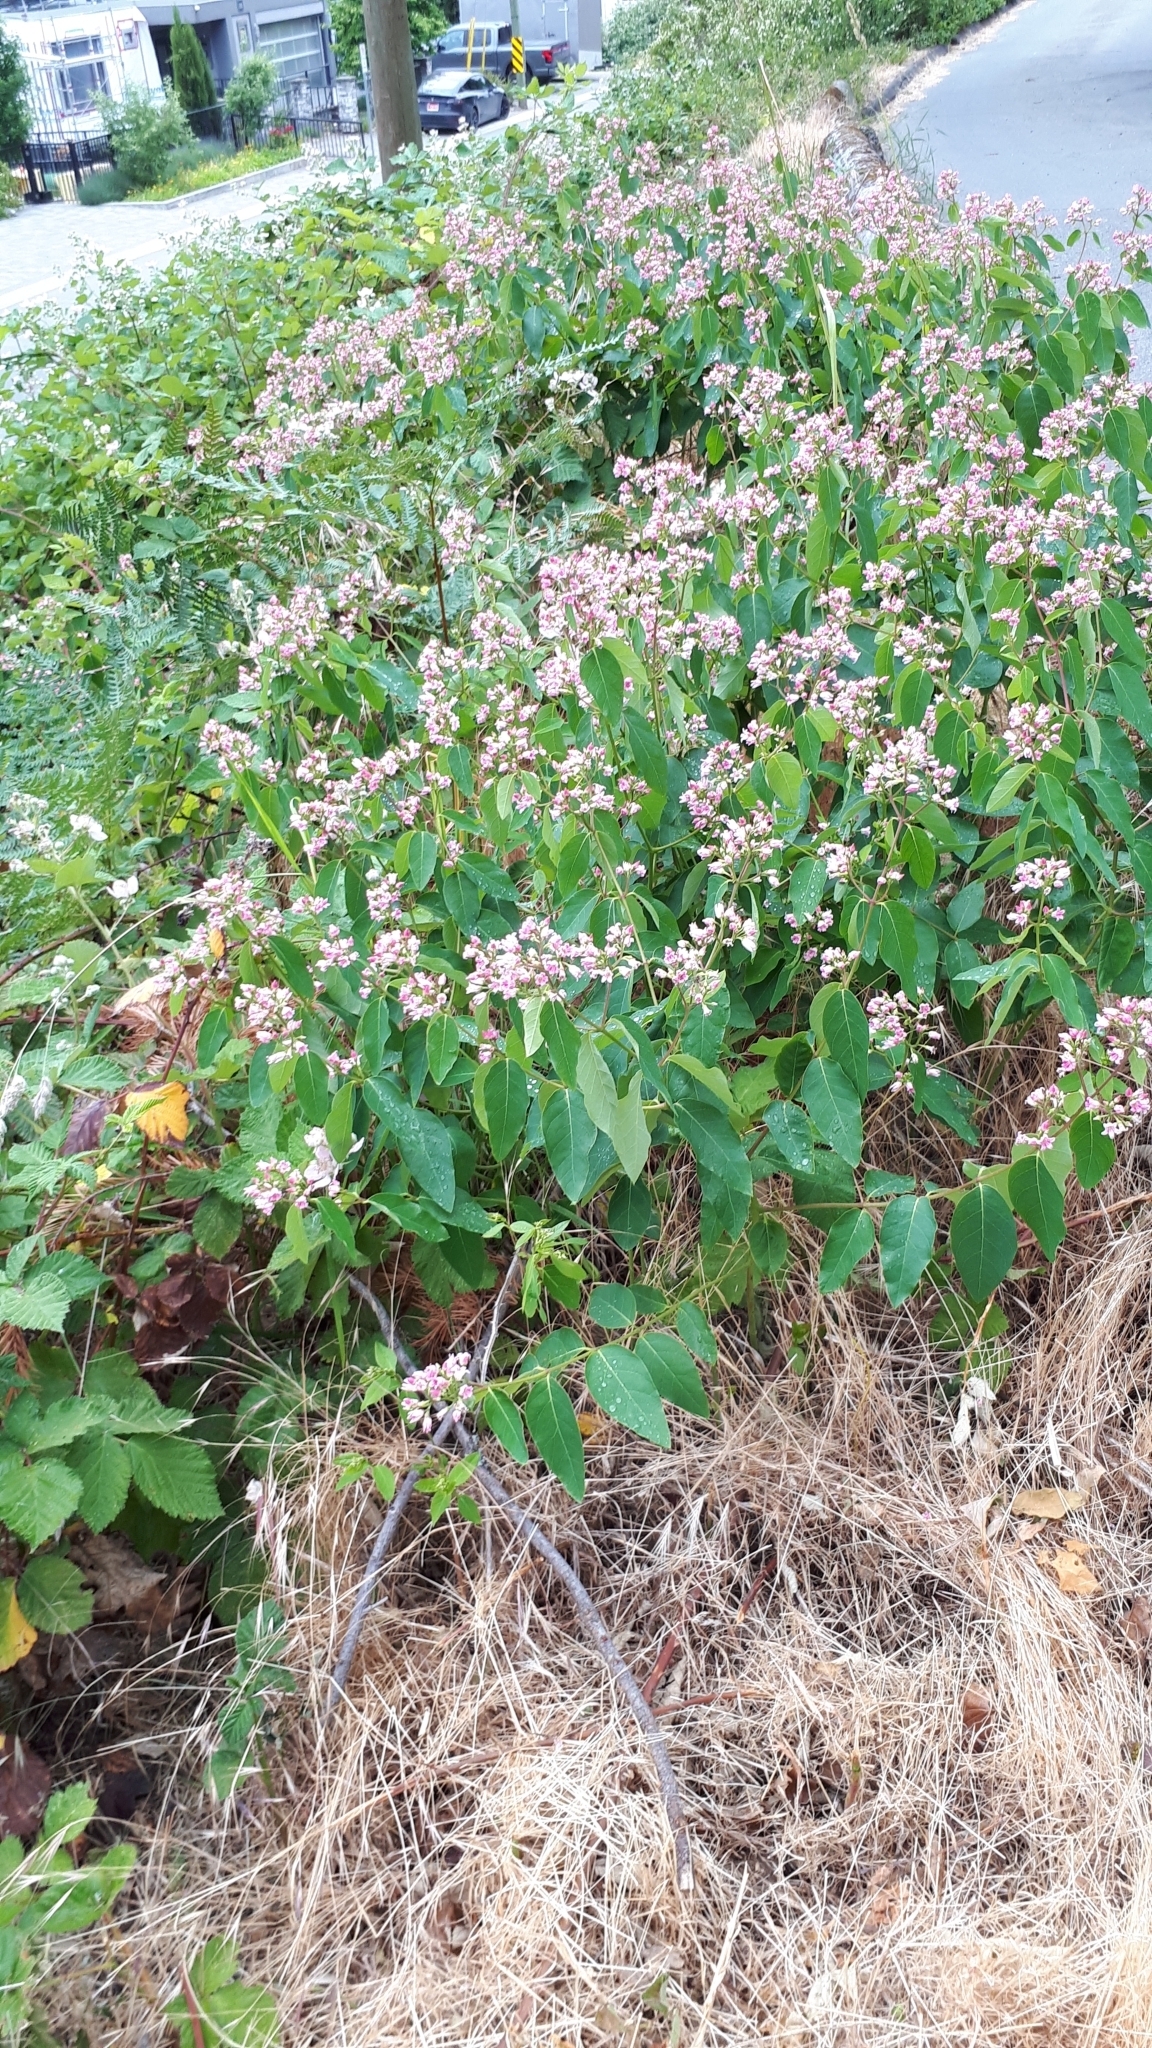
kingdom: Plantae
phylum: Tracheophyta
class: Magnoliopsida
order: Gentianales
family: Apocynaceae
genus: Apocynum
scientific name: Apocynum androsaemifolium
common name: Spreading dogbane
